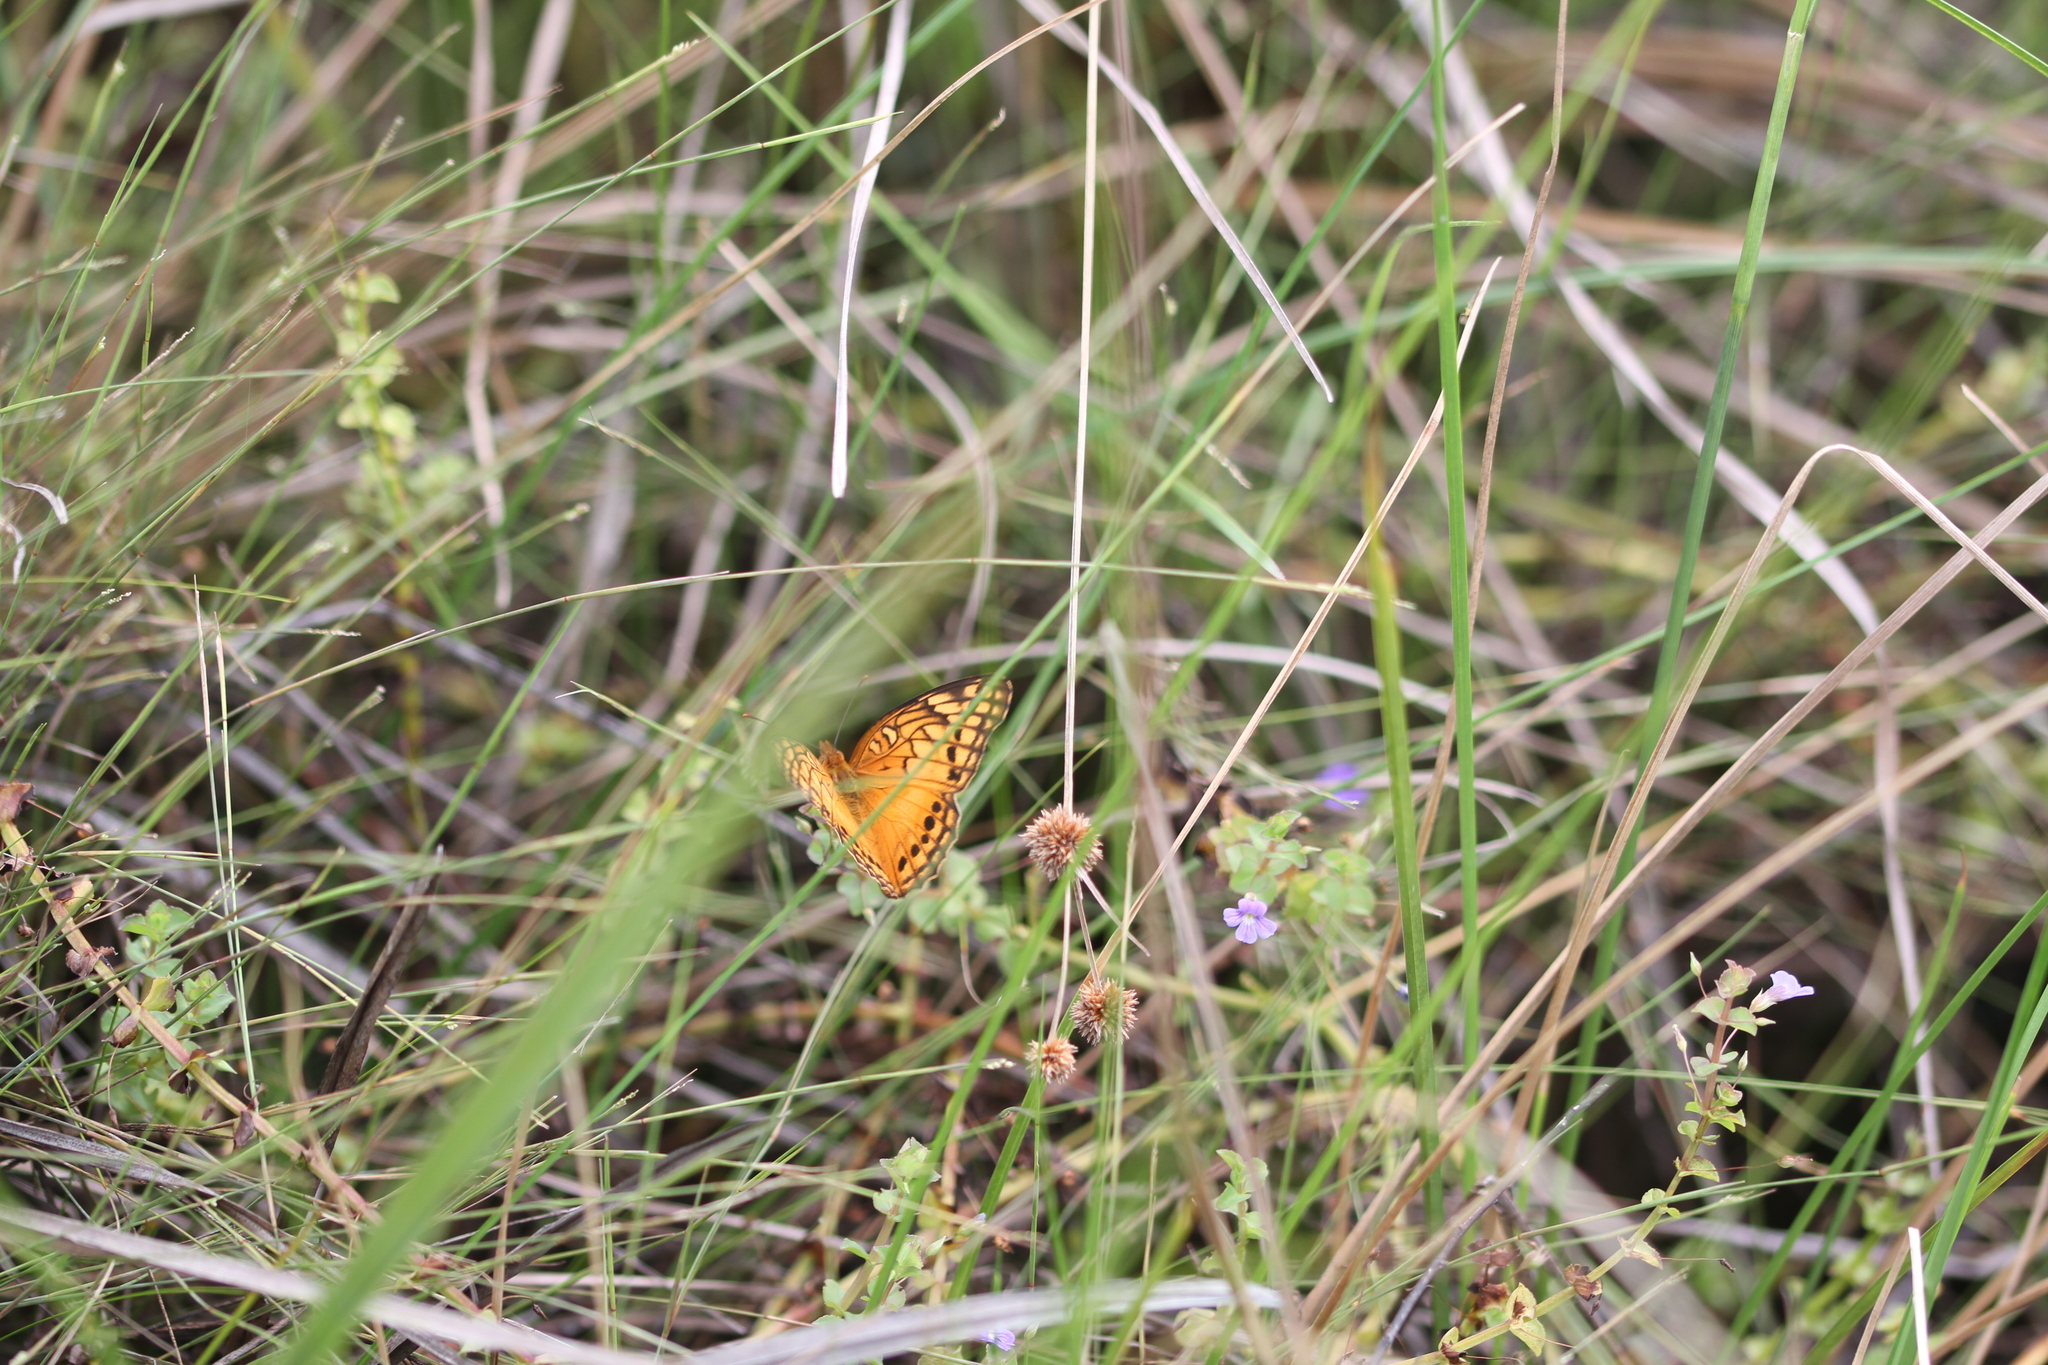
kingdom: Animalia
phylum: Arthropoda
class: Insecta
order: Lepidoptera
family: Nymphalidae
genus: Euptoieta
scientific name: Euptoieta hegesia
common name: Mexican fritillary
